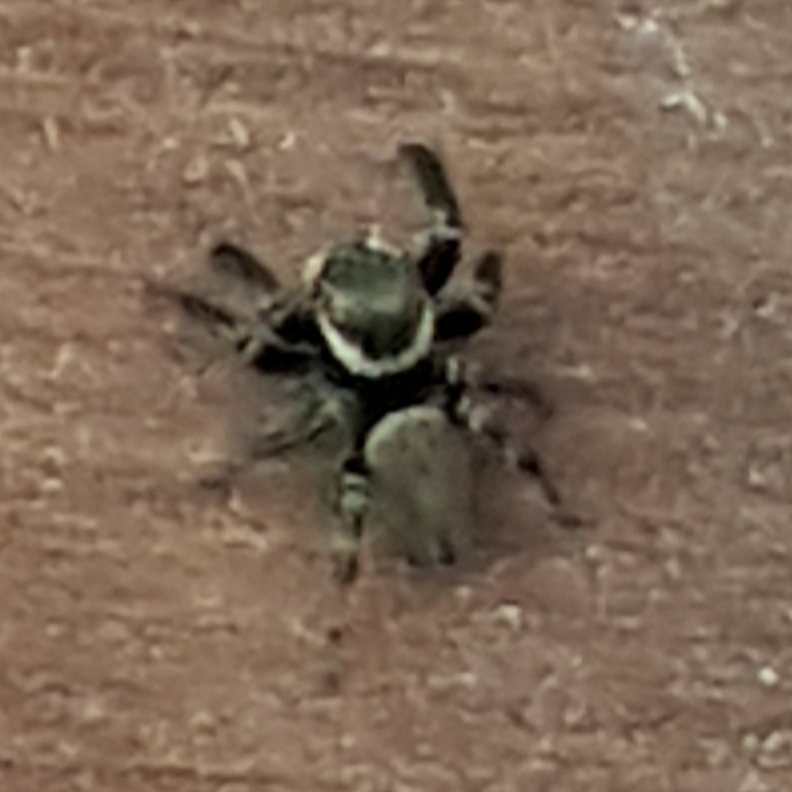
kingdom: Animalia
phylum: Arthropoda
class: Arachnida
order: Araneae
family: Salticidae
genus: Evarcha
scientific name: Evarcha jucunda
